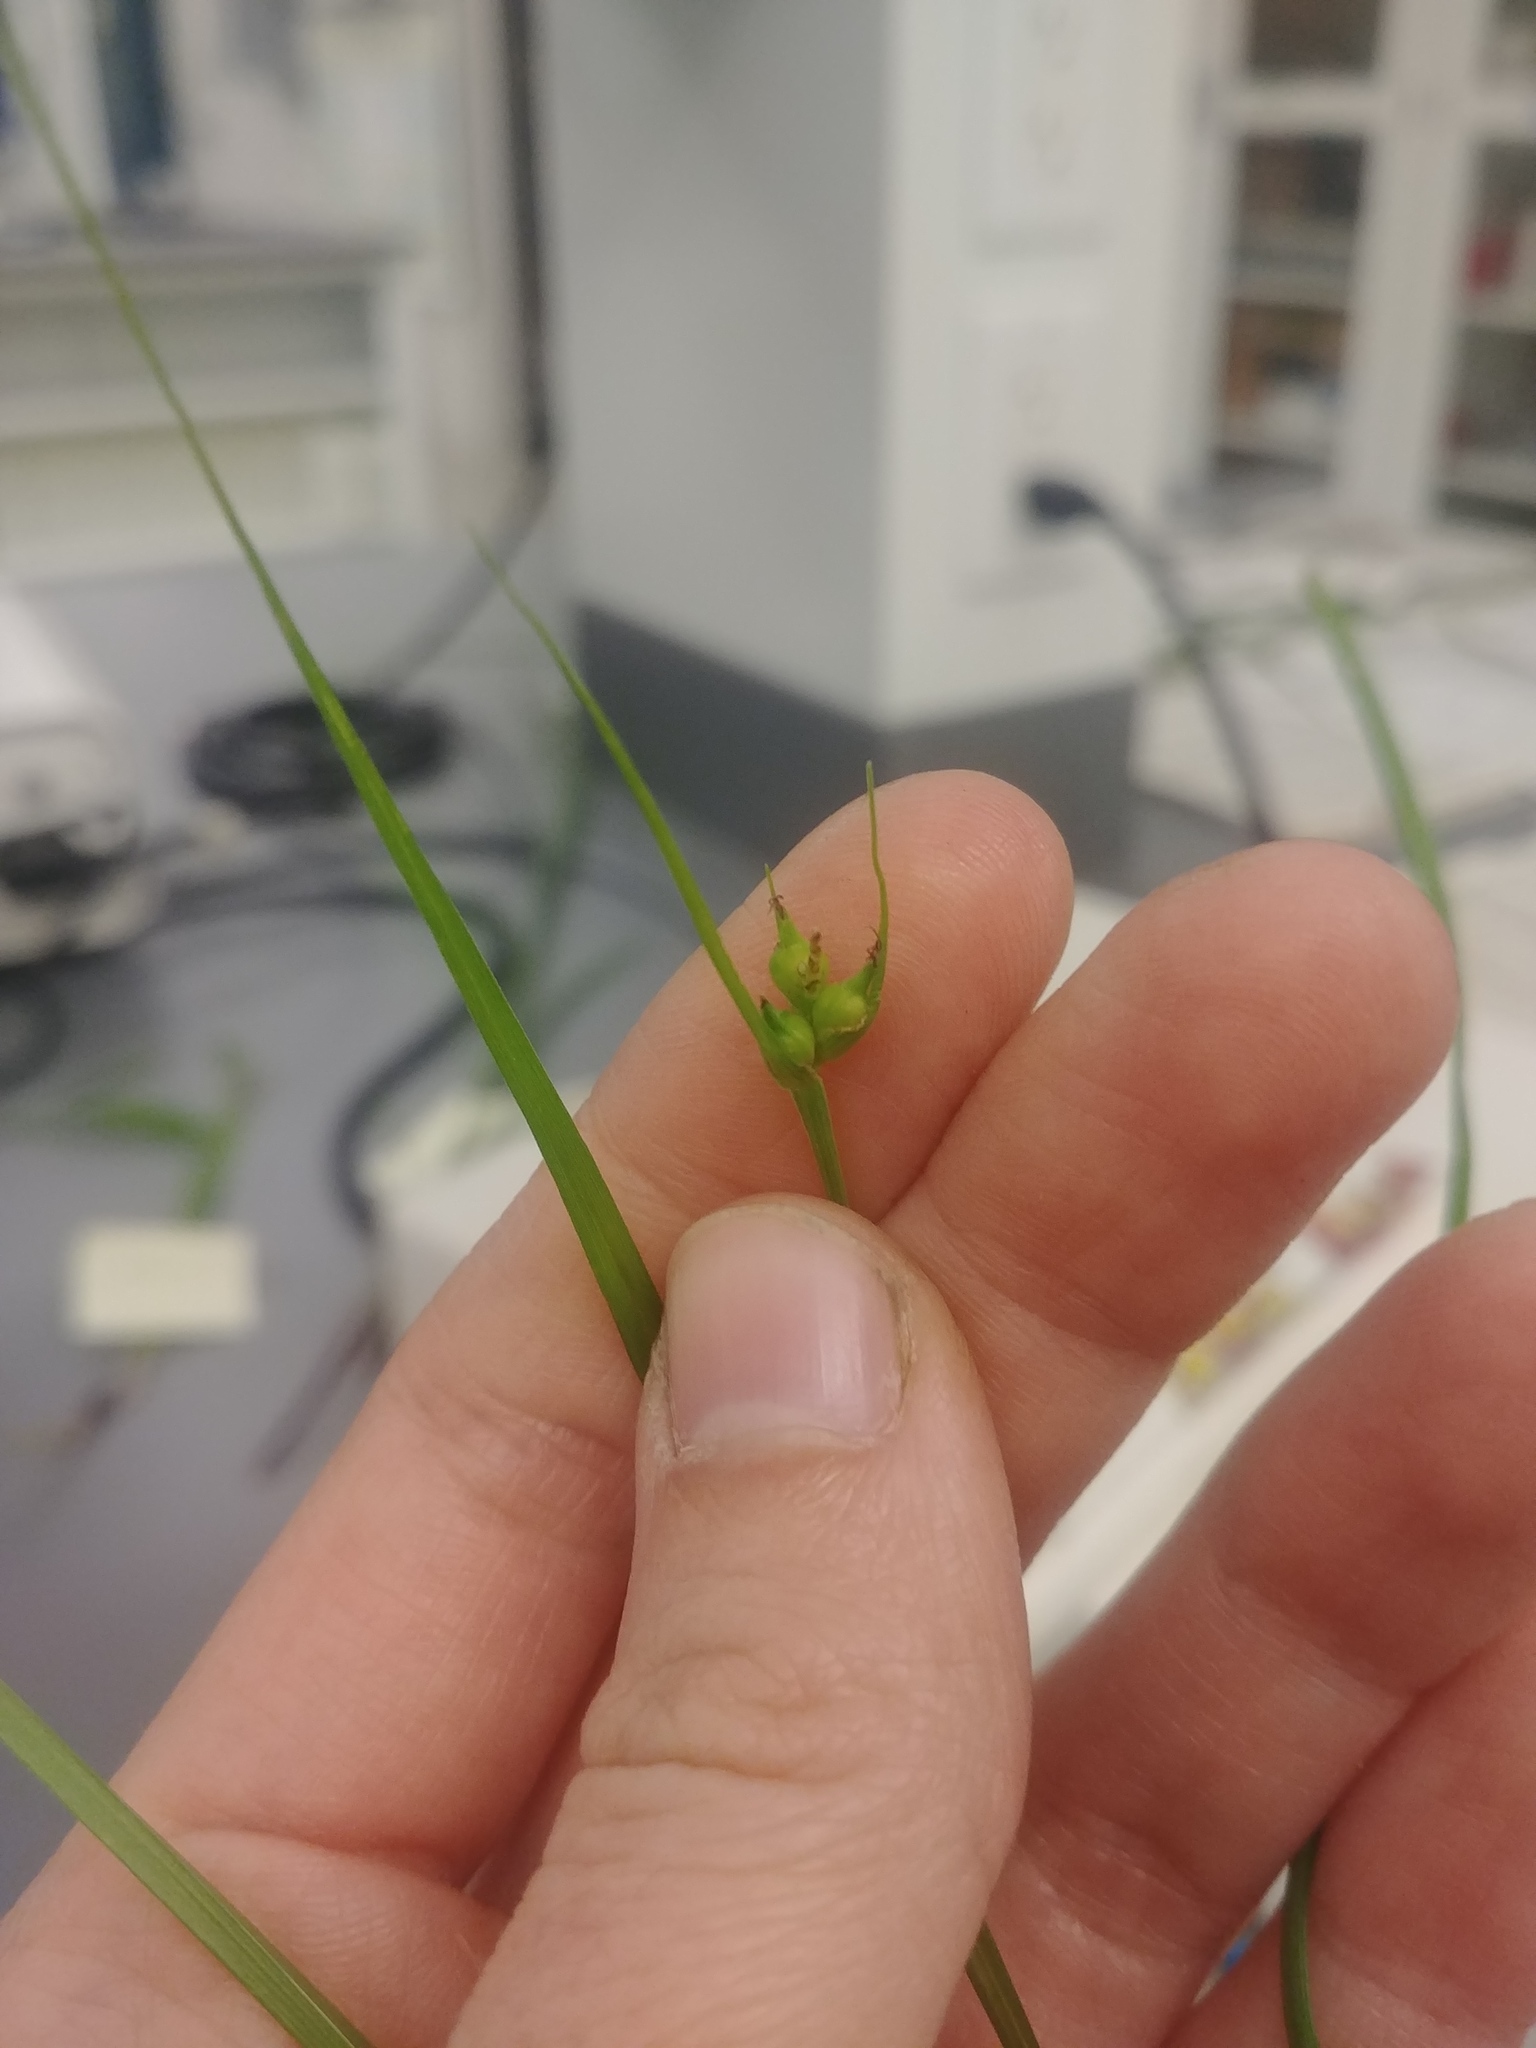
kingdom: Plantae
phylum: Tracheophyta
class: Liliopsida
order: Poales
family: Cyperaceae
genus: Carex
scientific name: Carex jamesii
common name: Grass sedge
